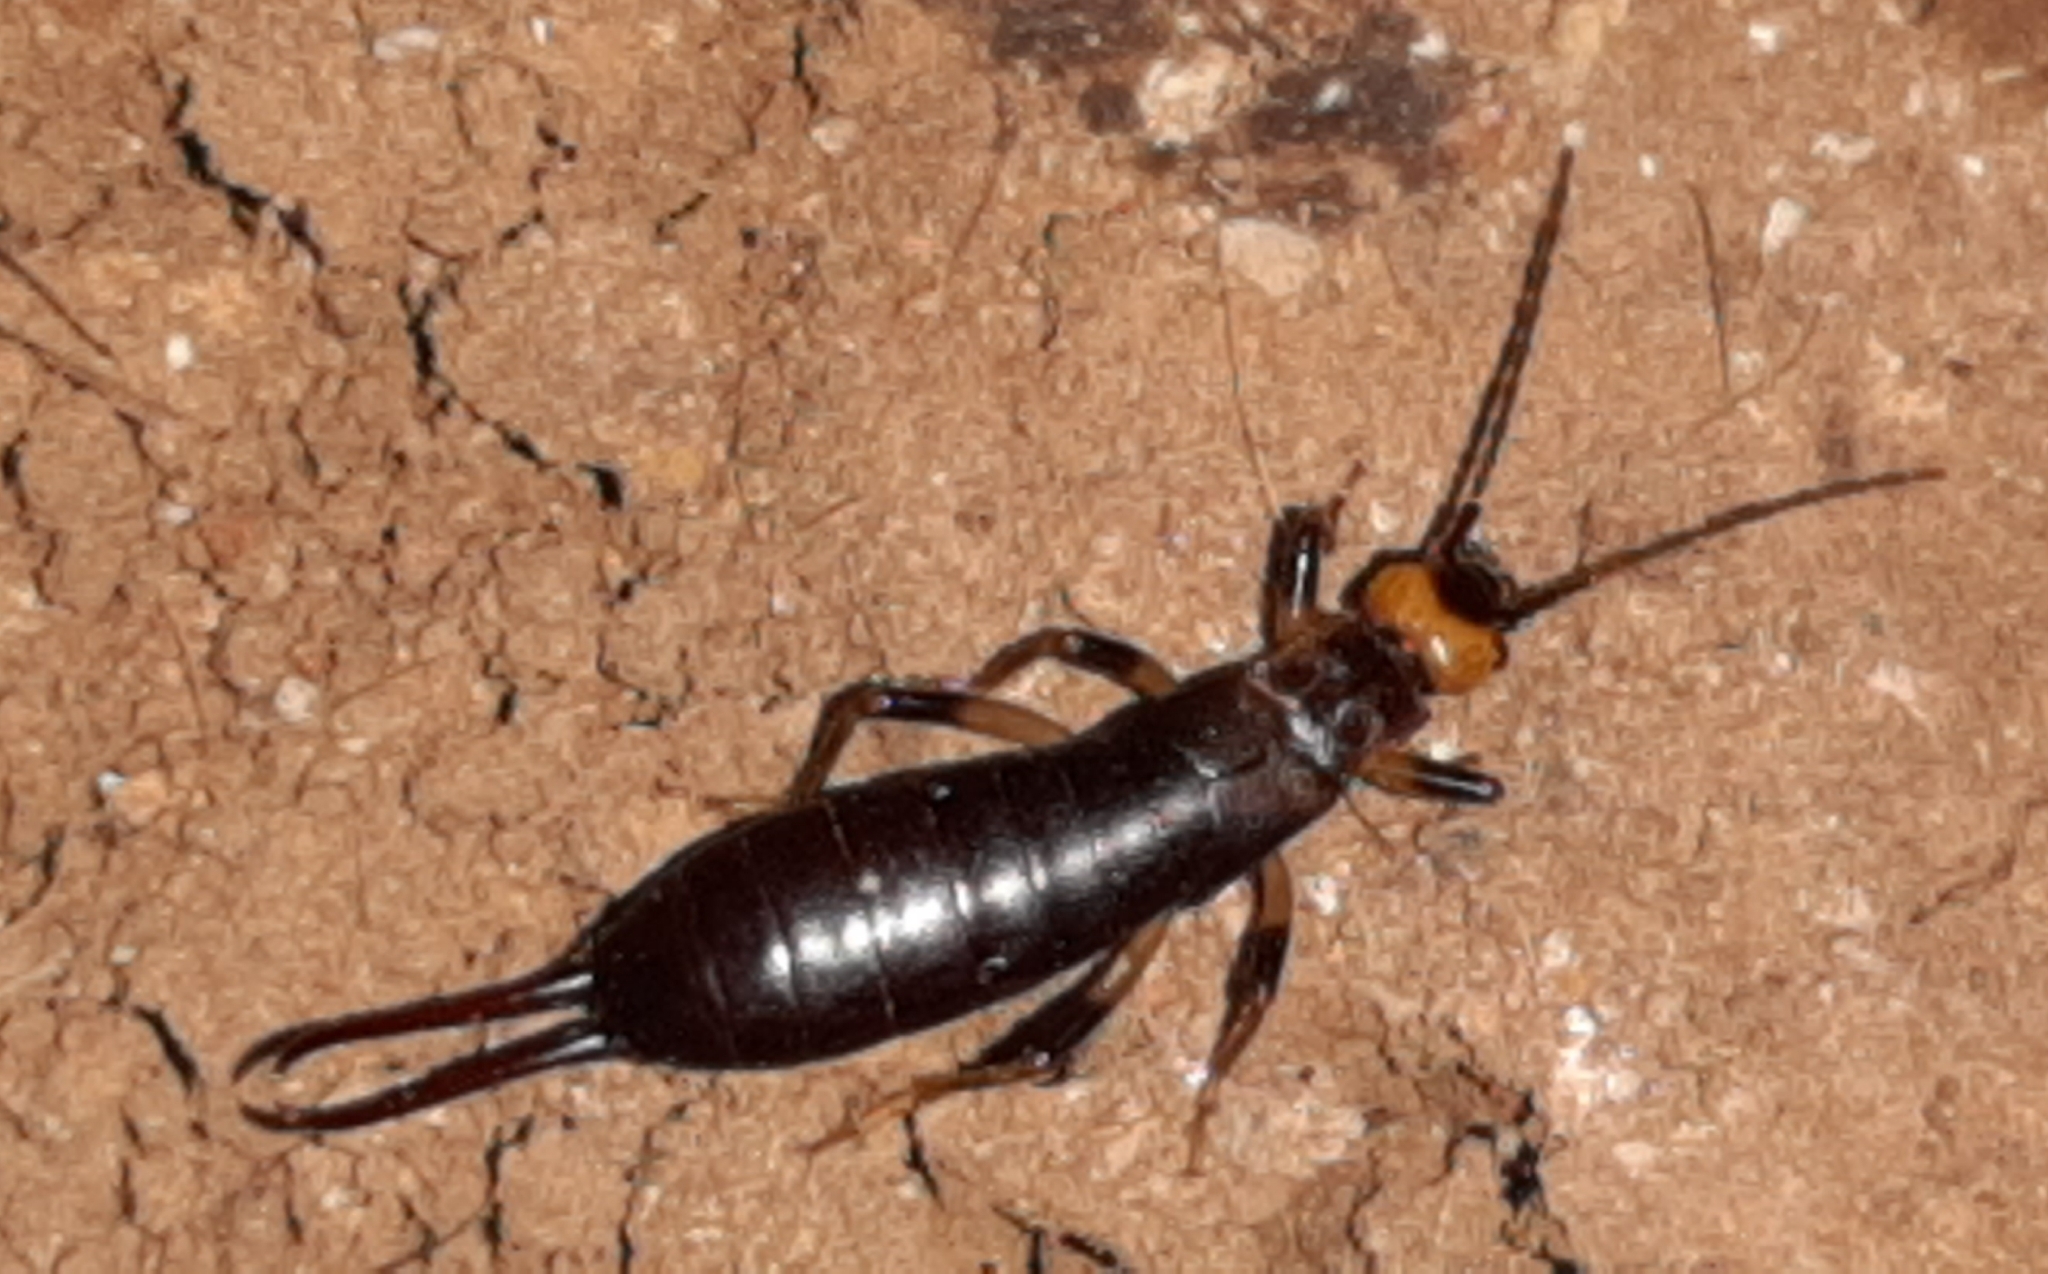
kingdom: Animalia
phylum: Arthropoda
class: Insecta
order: Dermaptera
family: Forficulidae
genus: Metresura
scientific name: Metresura flavipes
